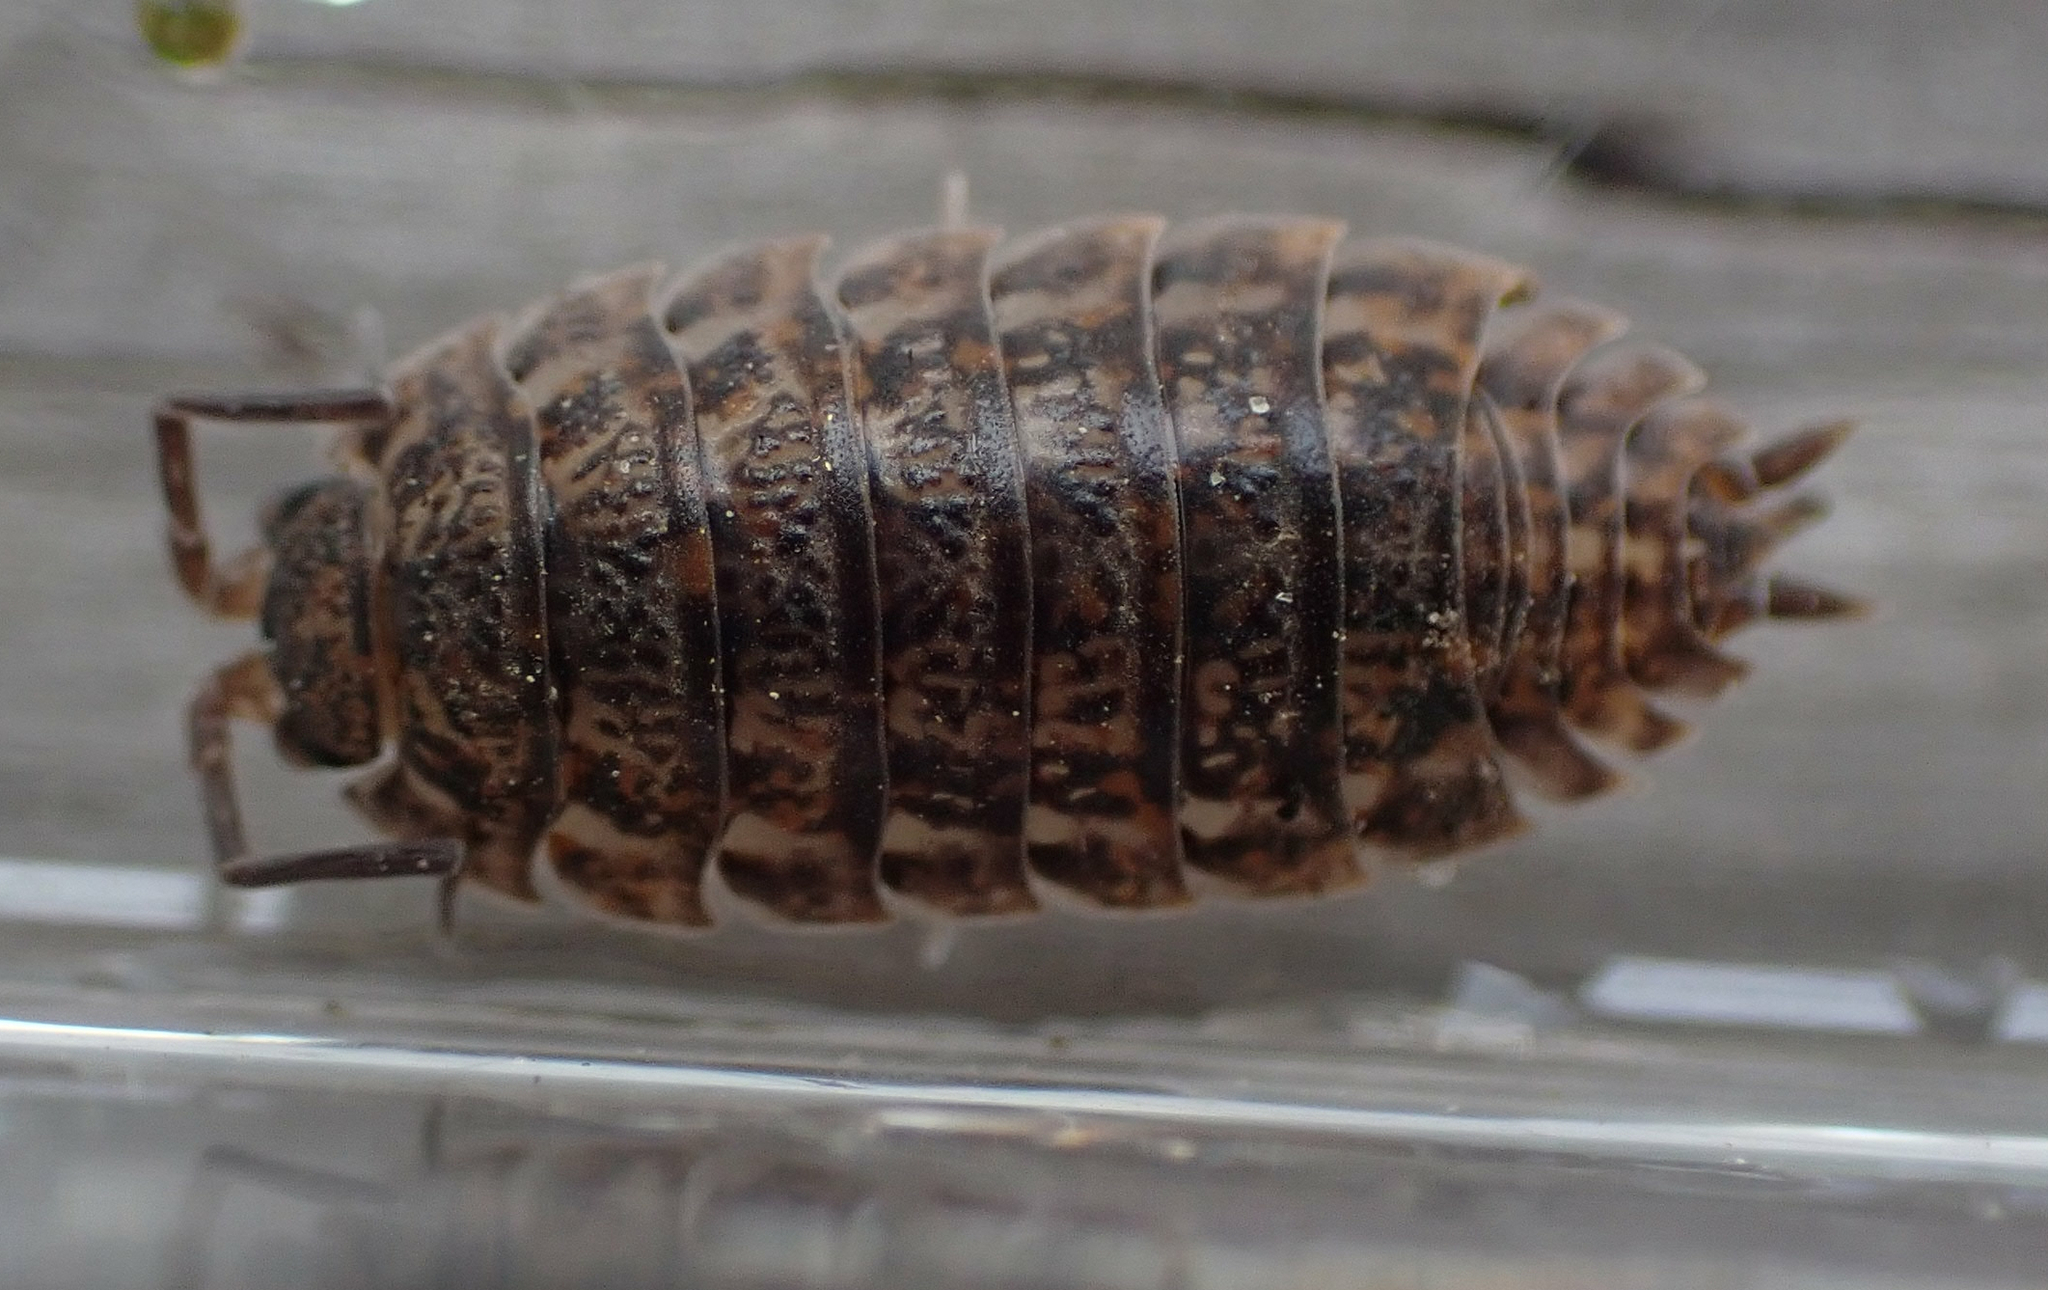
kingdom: Animalia
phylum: Arthropoda
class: Malacostraca
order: Isopoda
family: Trachelipodidae
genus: Trachelipus
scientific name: Trachelipus rathkii
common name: Isopod
